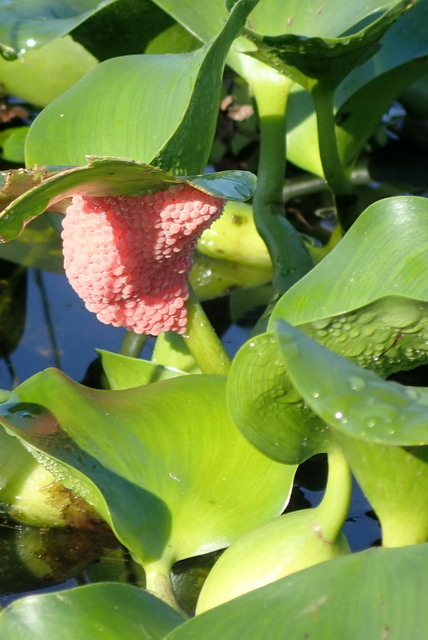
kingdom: Animalia
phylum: Mollusca
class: Gastropoda
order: Architaenioglossa
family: Ampullariidae
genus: Pomacea
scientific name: Pomacea maculata
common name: Giant applesnail
